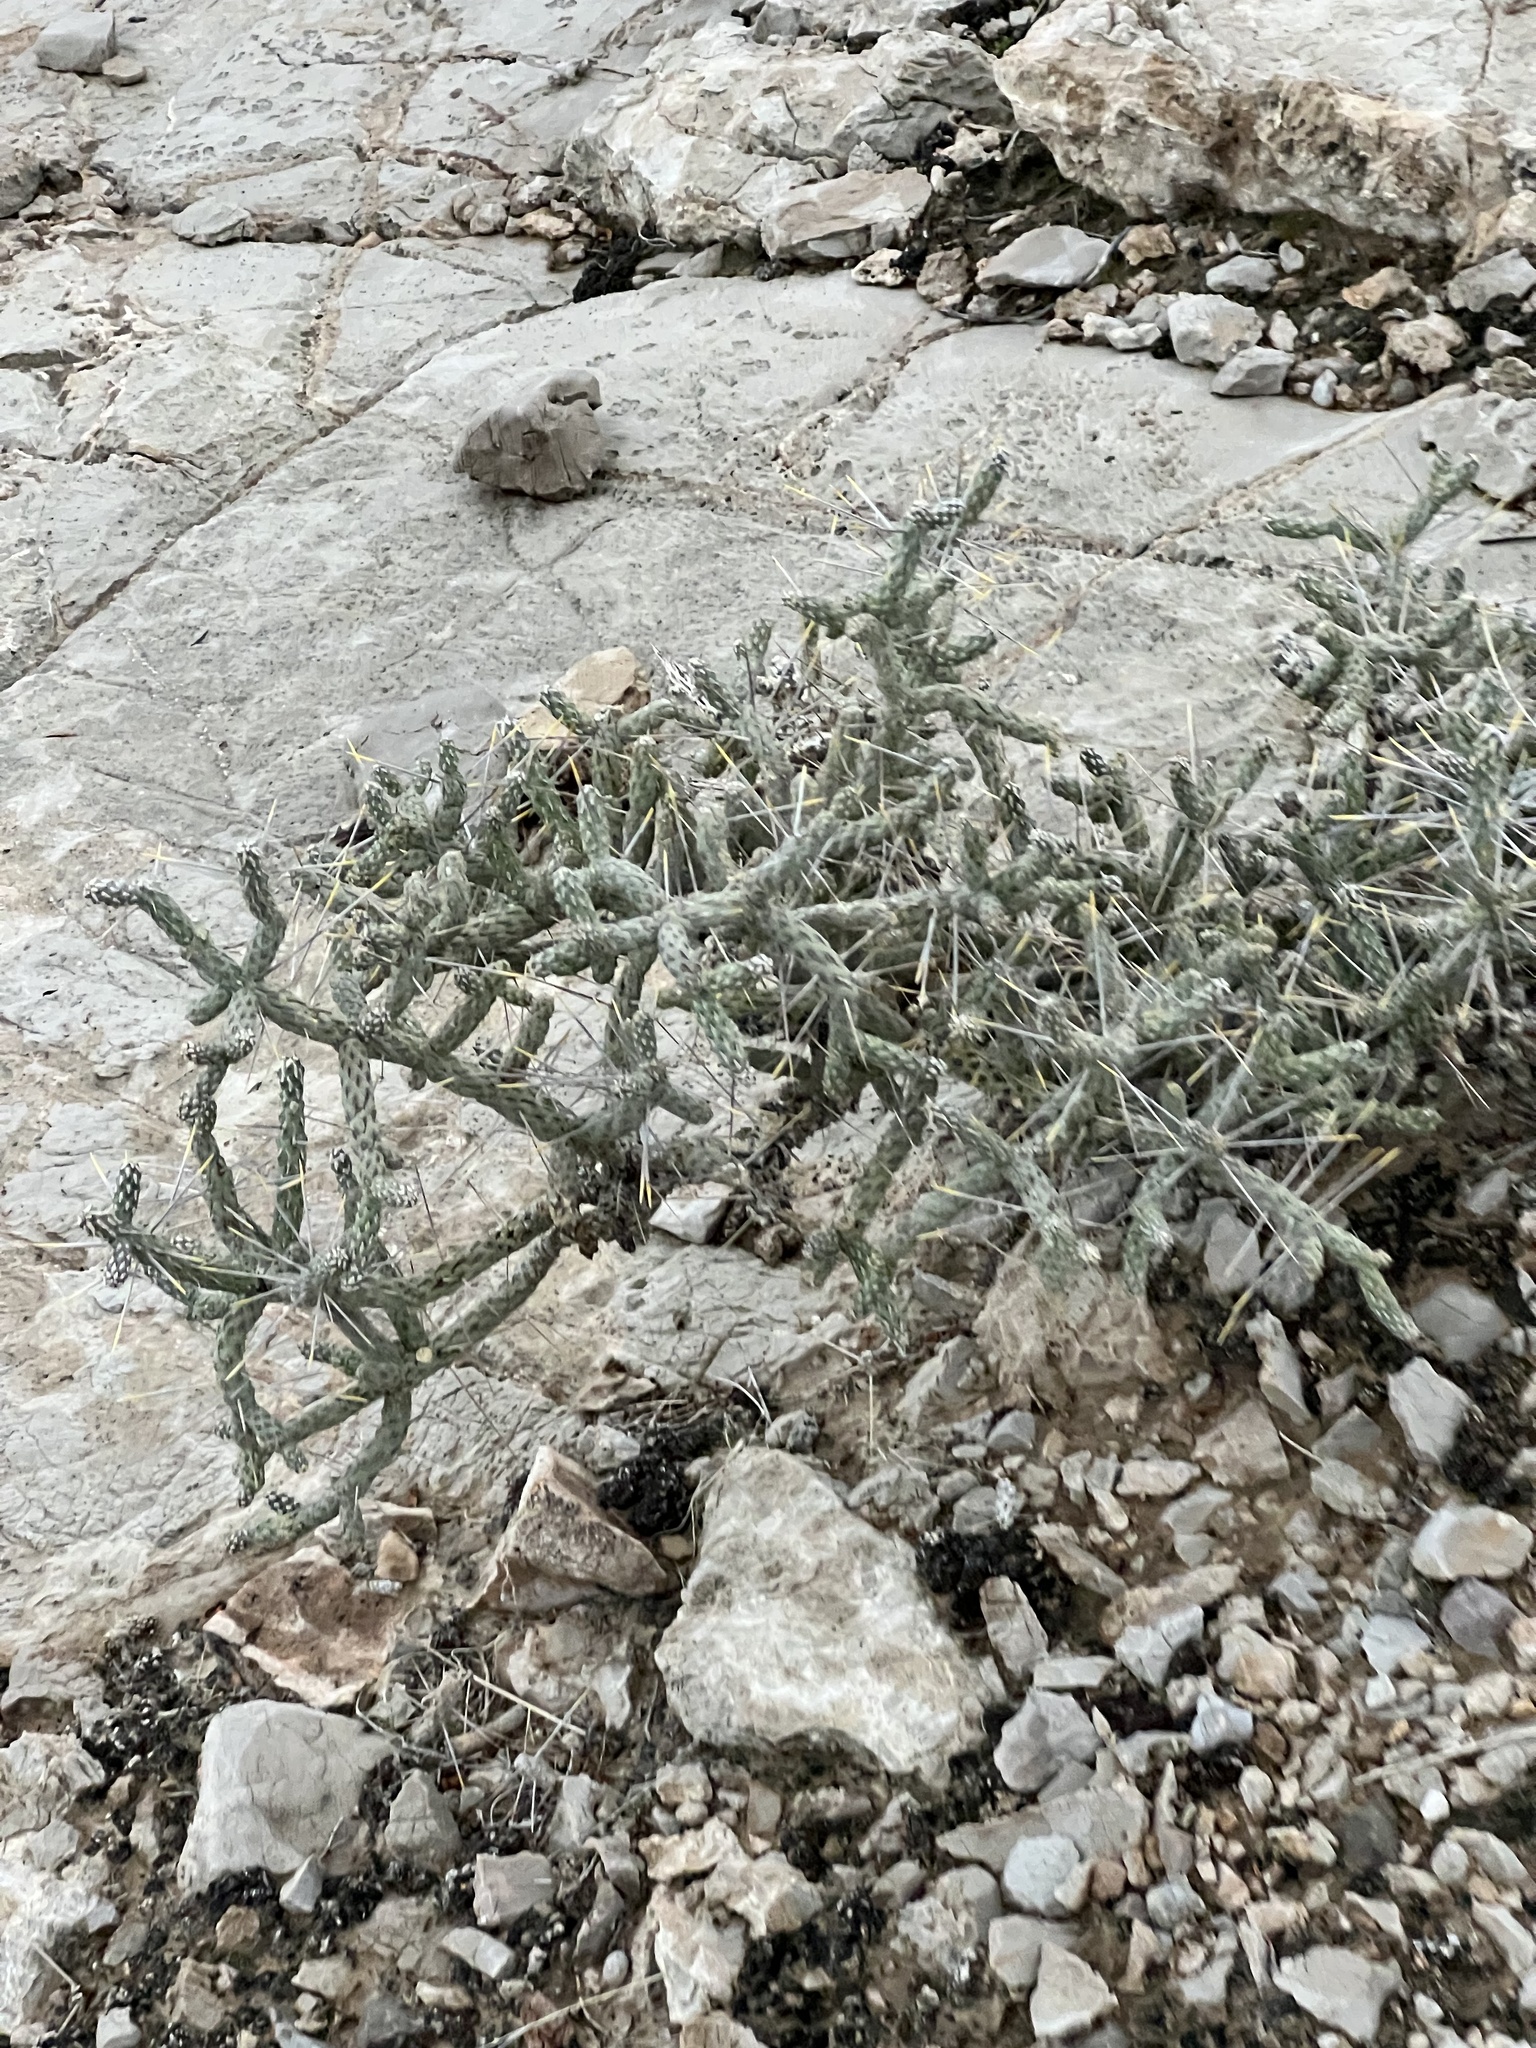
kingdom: Plantae
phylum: Tracheophyta
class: Magnoliopsida
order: Caryophyllales
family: Cactaceae
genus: Cylindropuntia
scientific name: Cylindropuntia ramosissima
